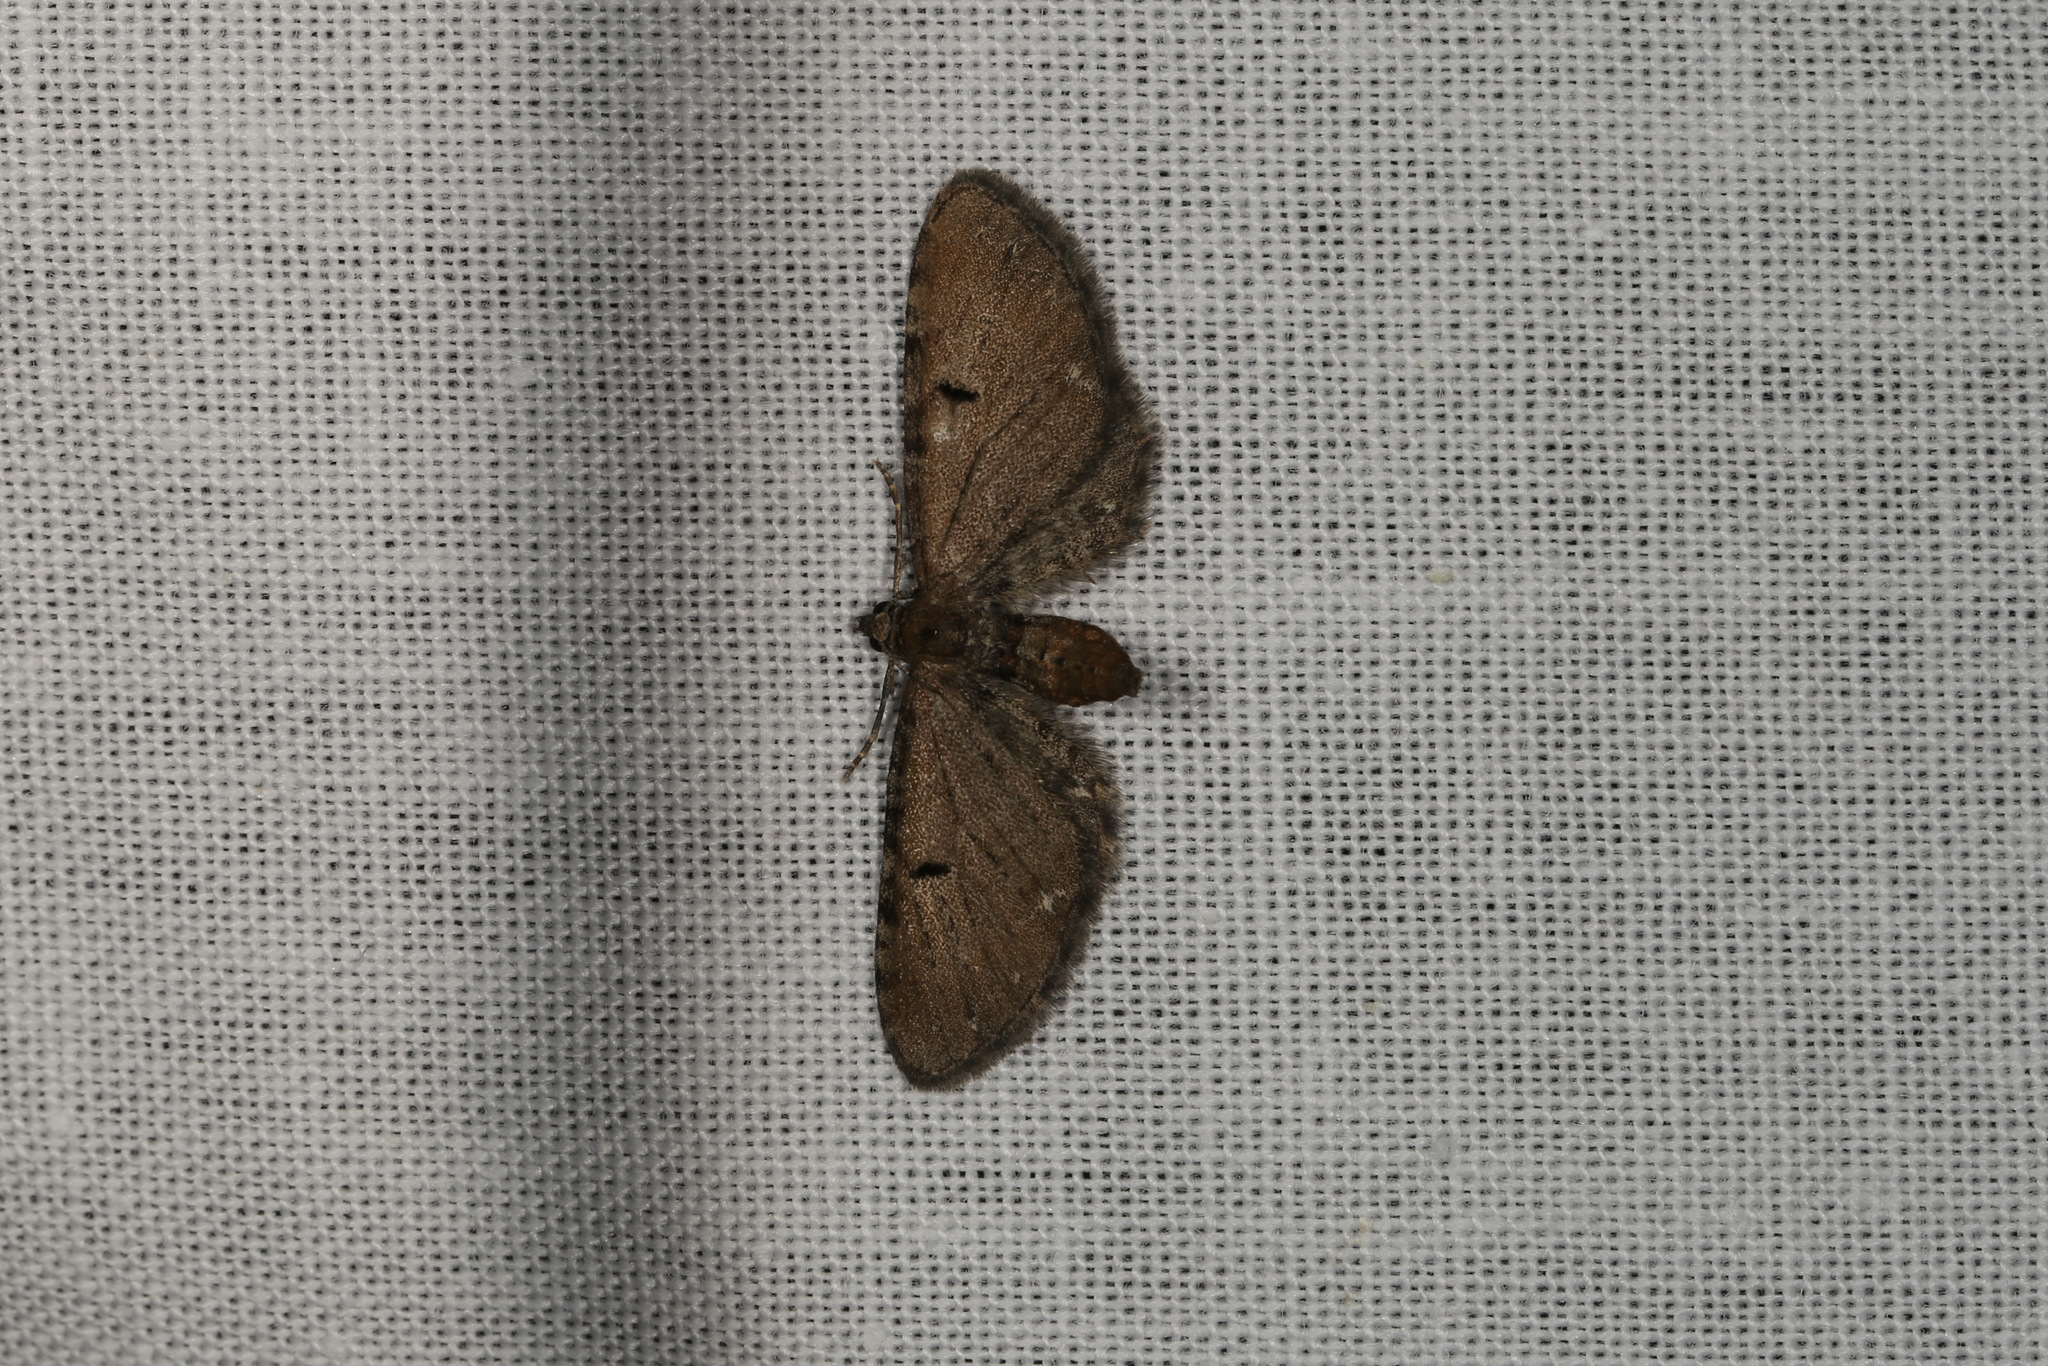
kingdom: Animalia
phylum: Arthropoda
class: Insecta
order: Lepidoptera
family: Geometridae
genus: Eupithecia
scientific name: Eupithecia absinthiata
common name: Wormwood pug
